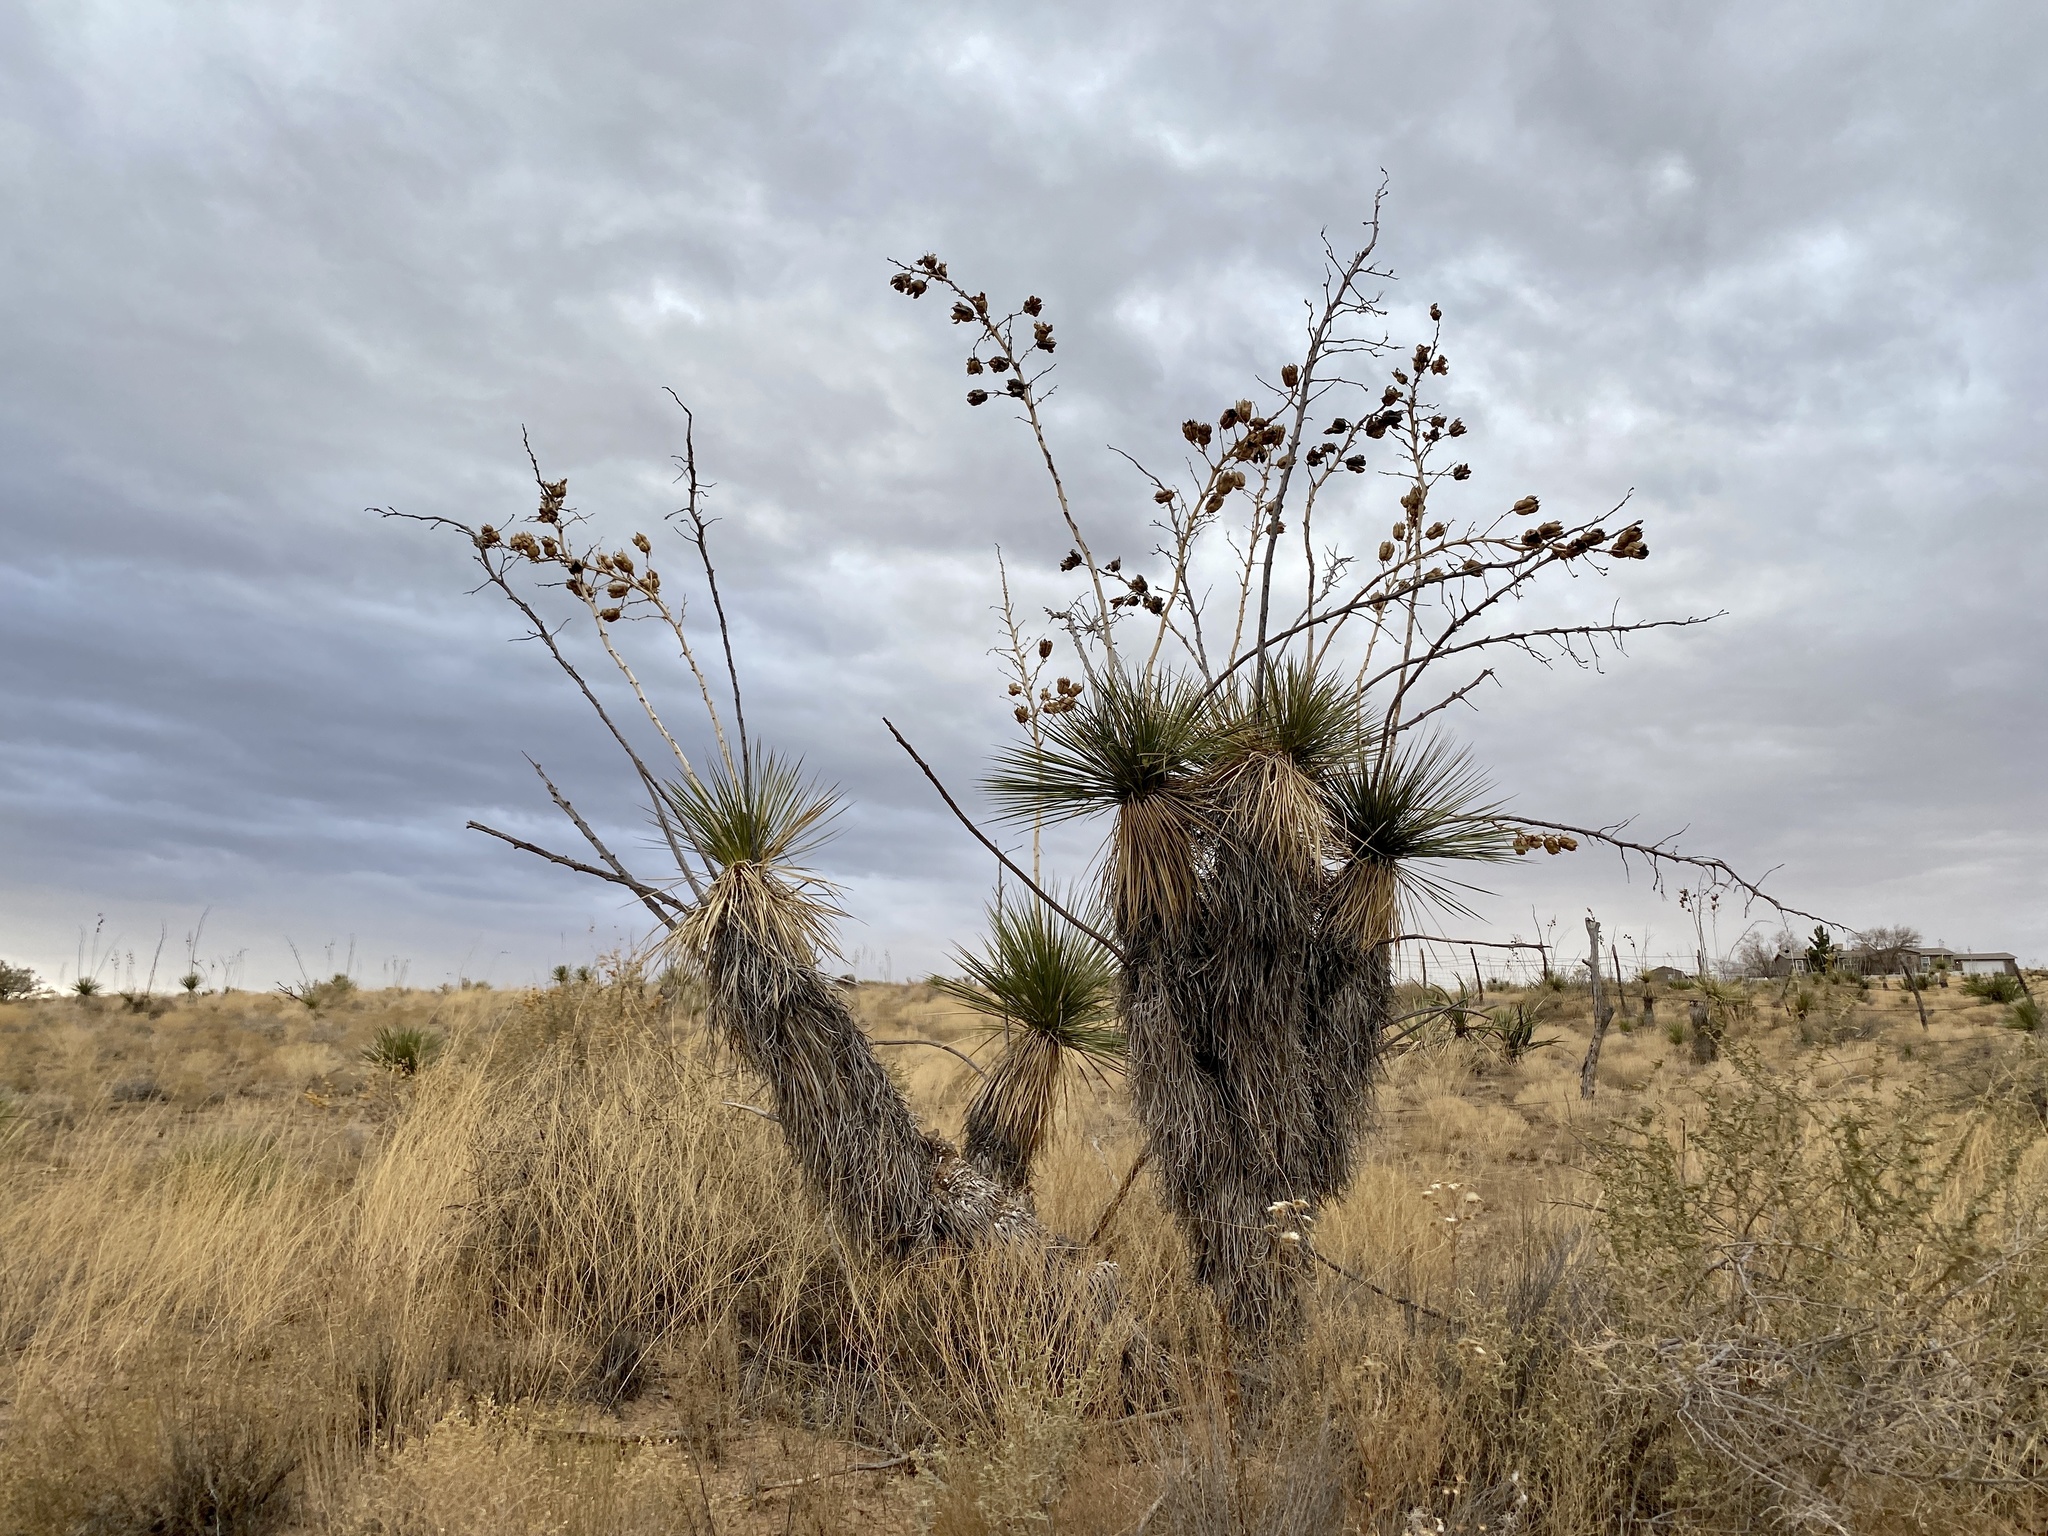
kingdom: Plantae
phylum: Tracheophyta
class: Liliopsida
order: Asparagales
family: Asparagaceae
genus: Yucca
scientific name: Yucca elata
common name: Palmella
